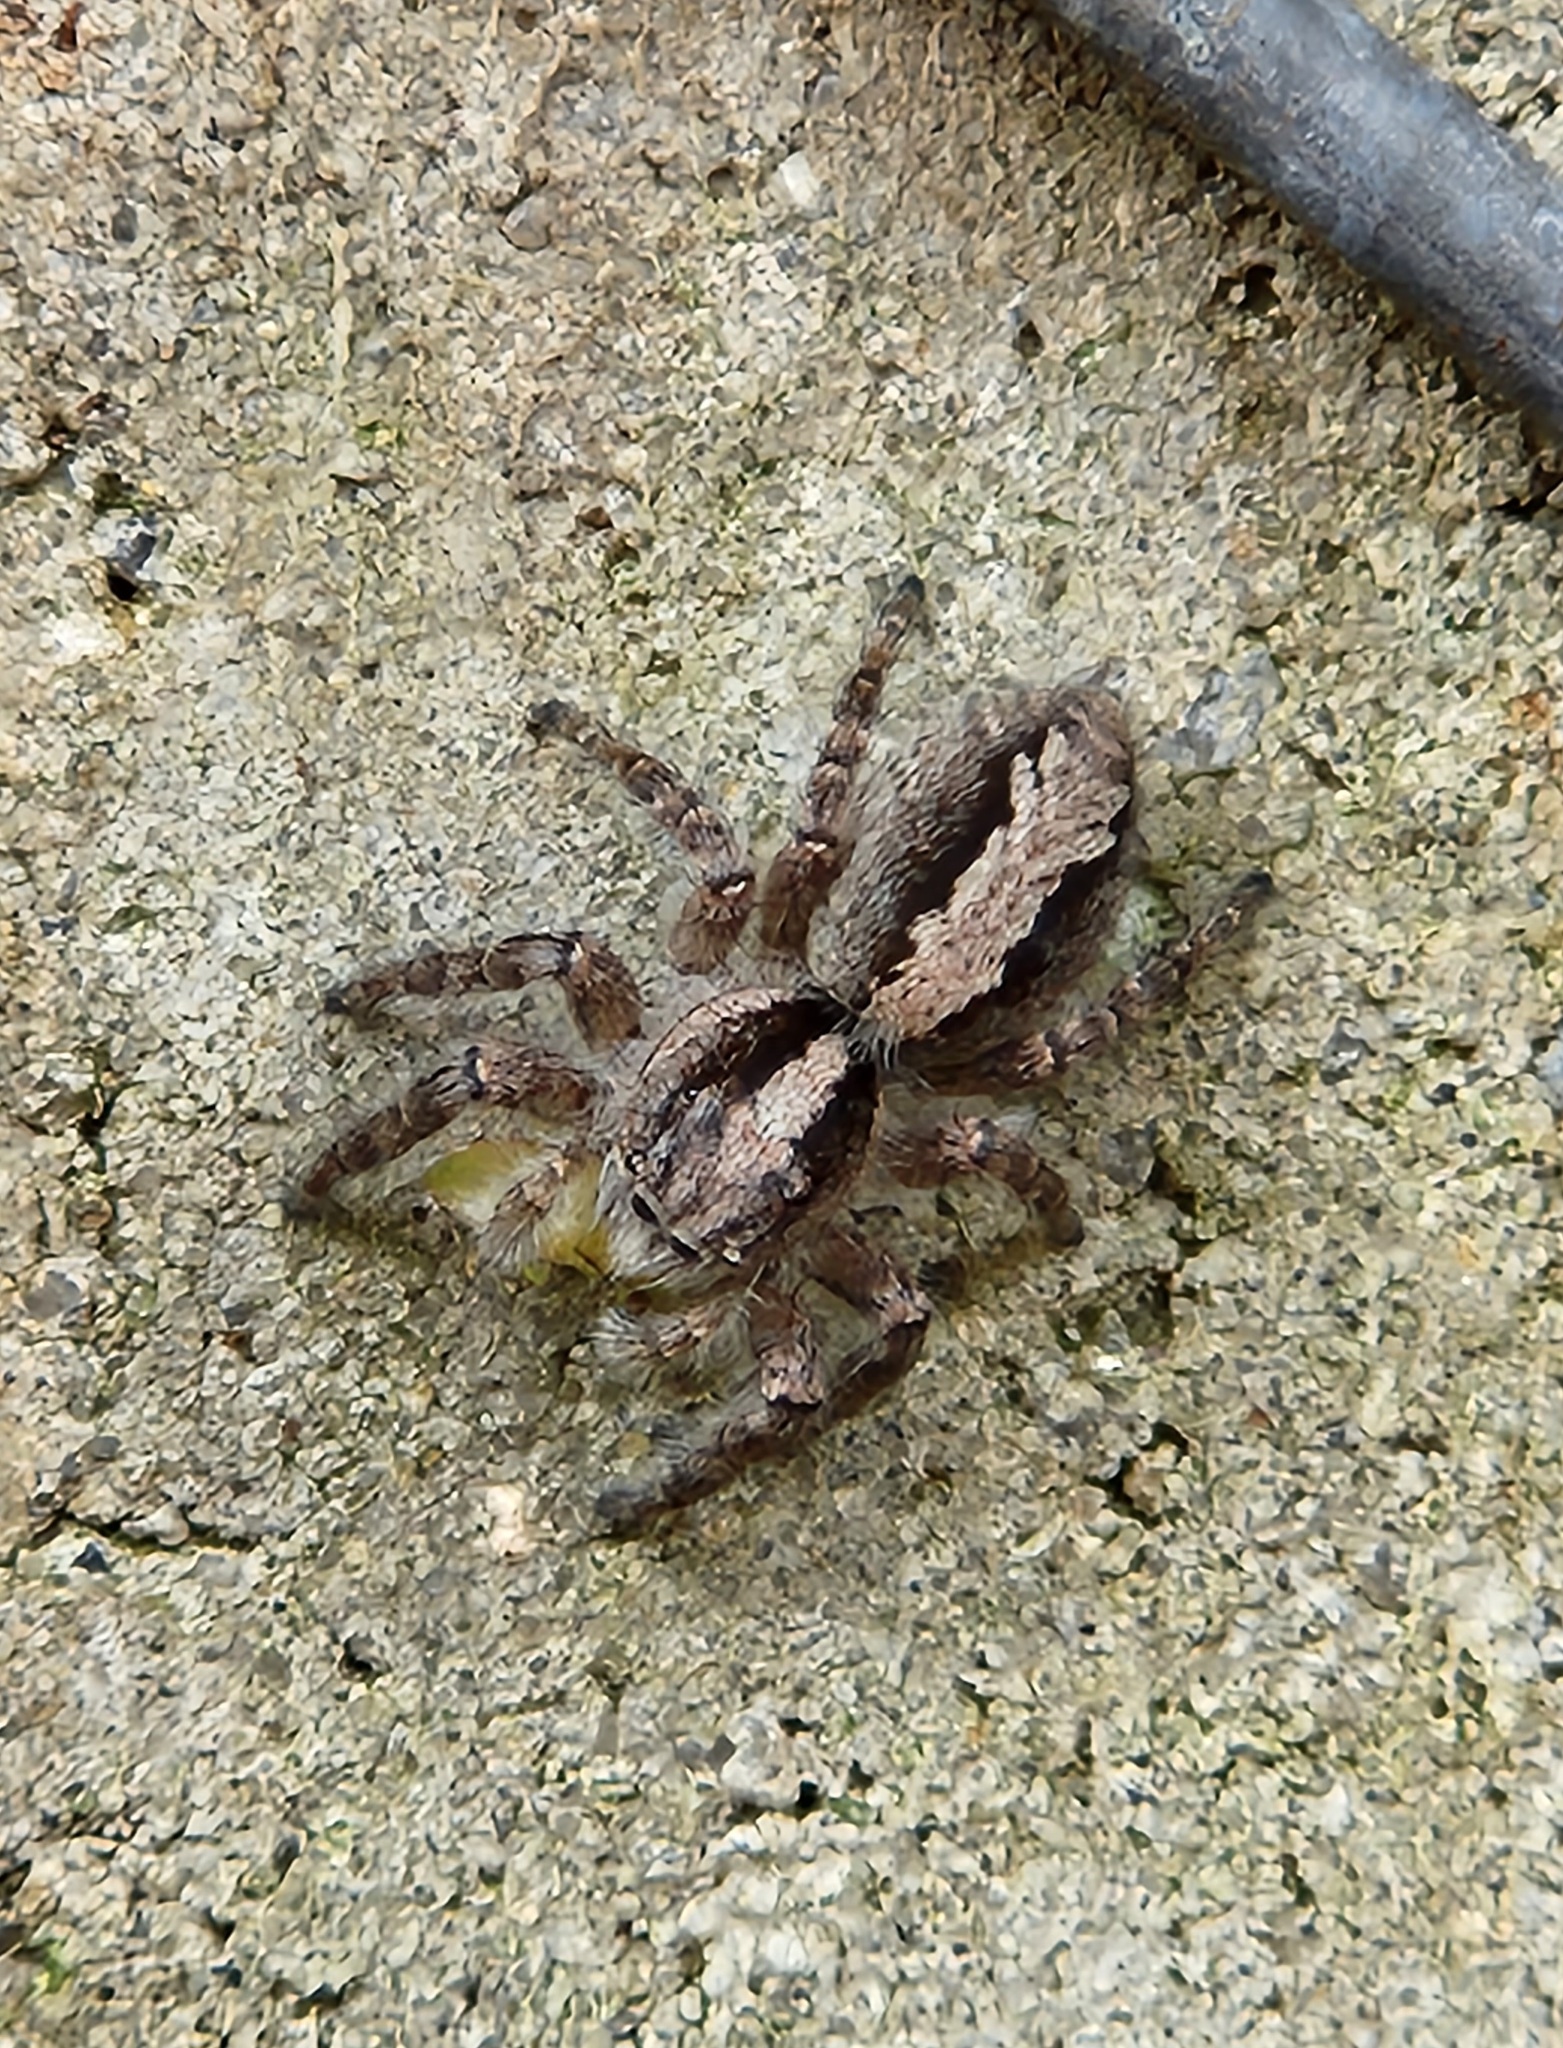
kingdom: Animalia
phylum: Arthropoda
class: Arachnida
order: Araneae
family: Salticidae
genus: Megafreya
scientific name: Megafreya sutrix
